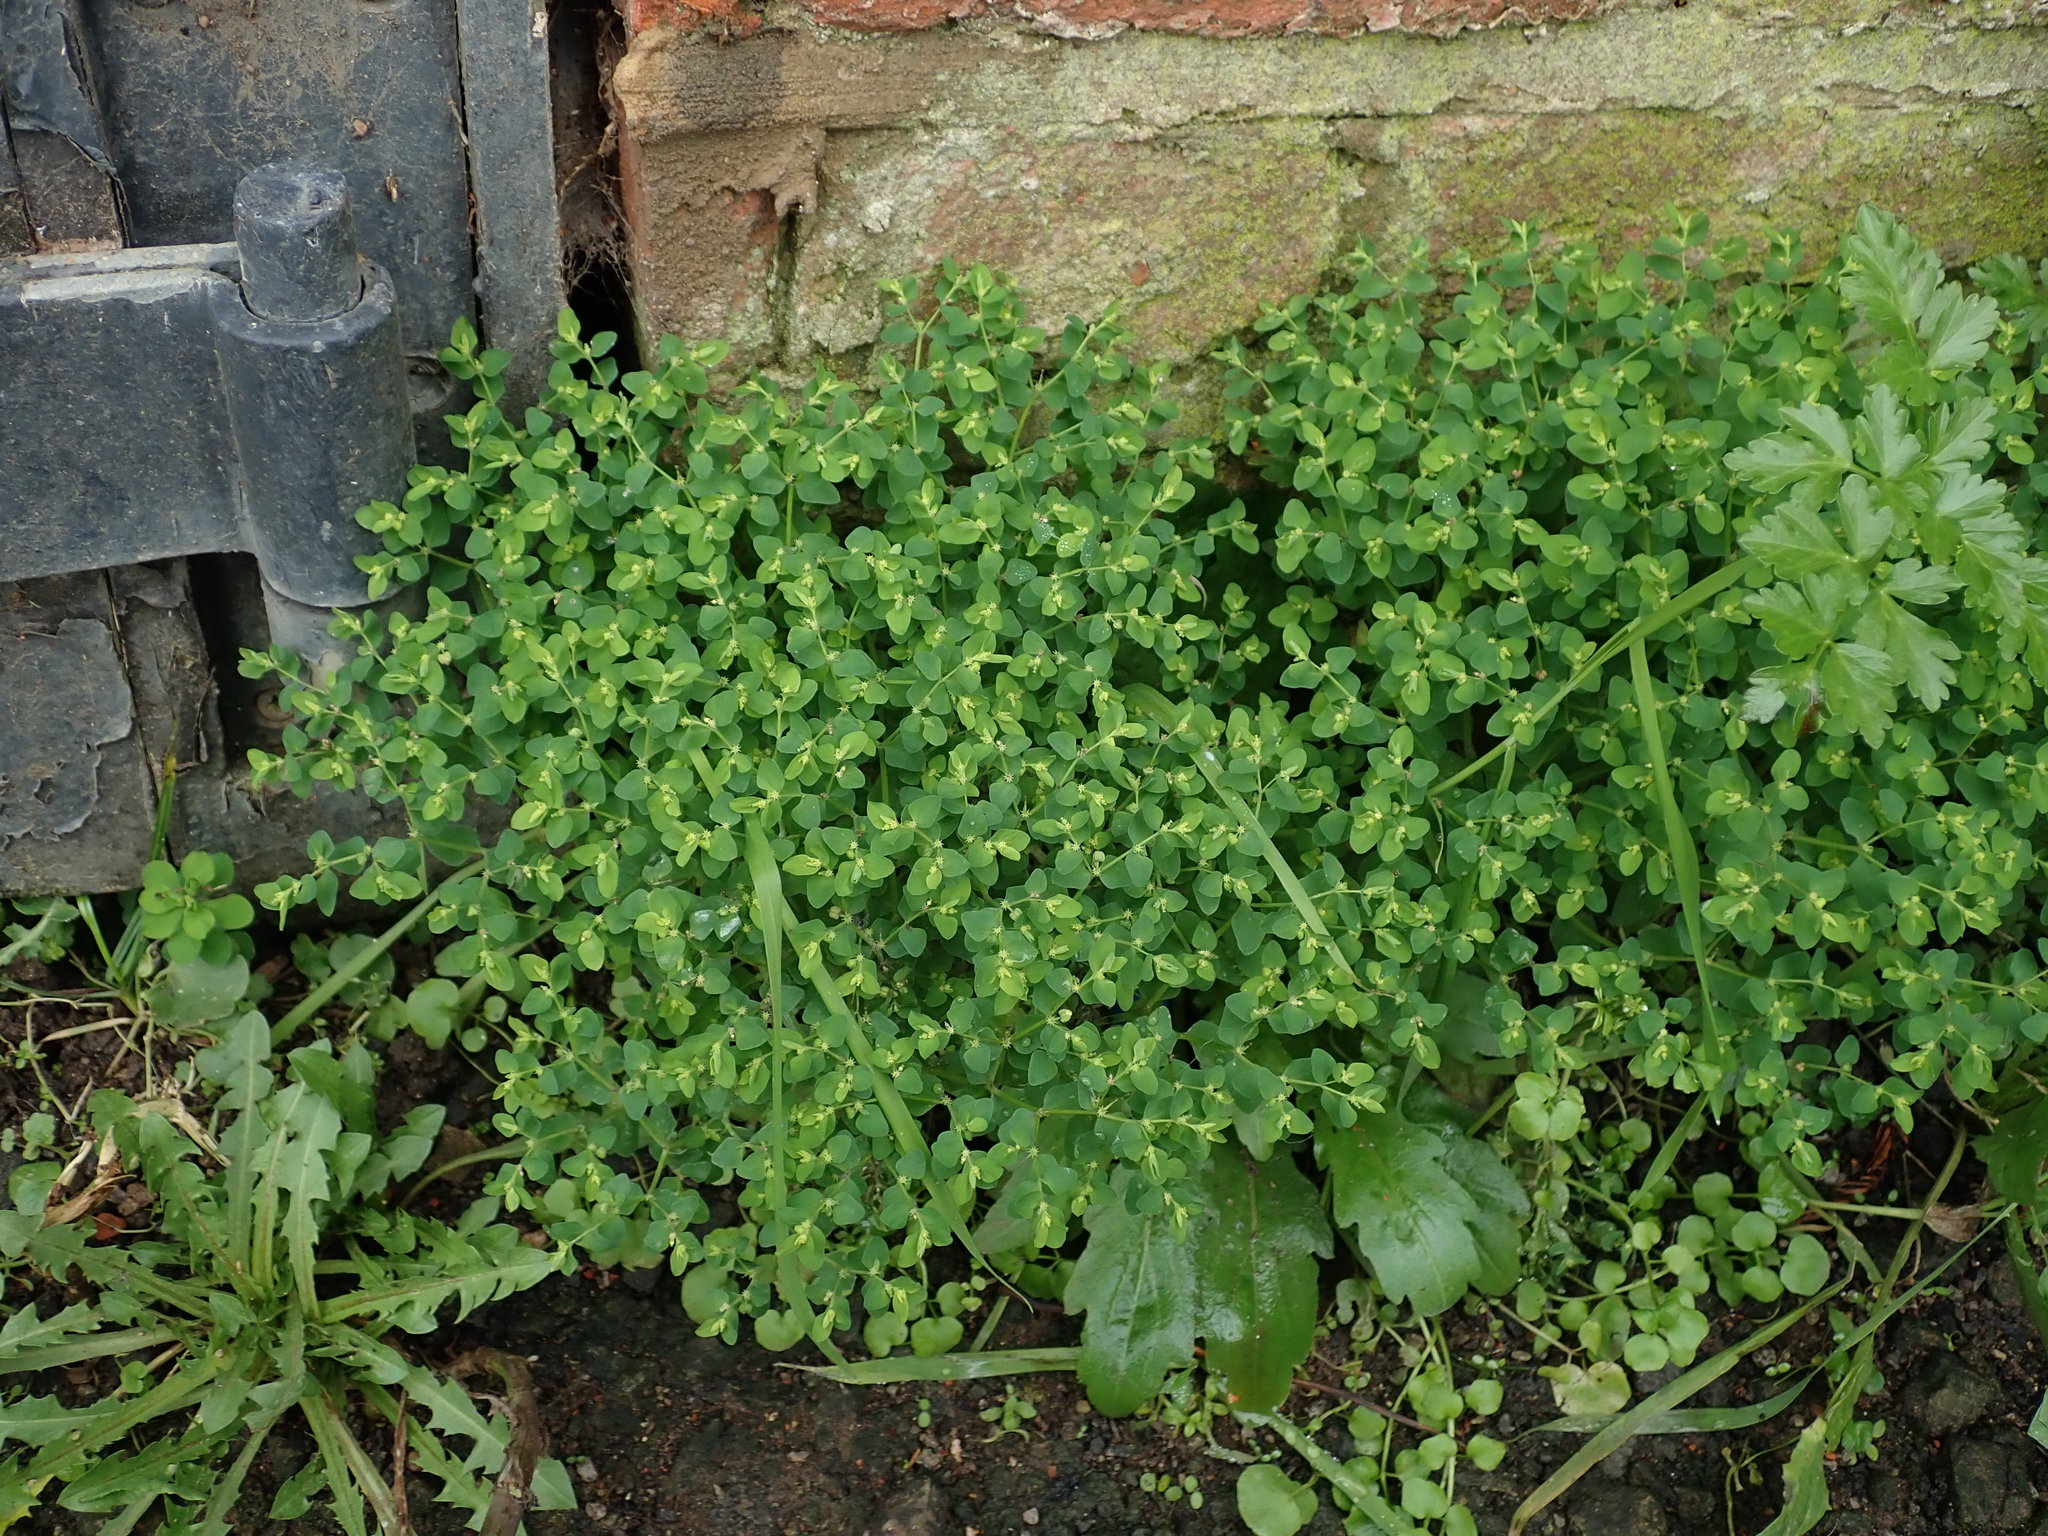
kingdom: Plantae
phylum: Tracheophyta
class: Magnoliopsida
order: Malpighiales
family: Euphorbiaceae
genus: Euphorbia
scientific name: Euphorbia peplus
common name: Petty spurge
